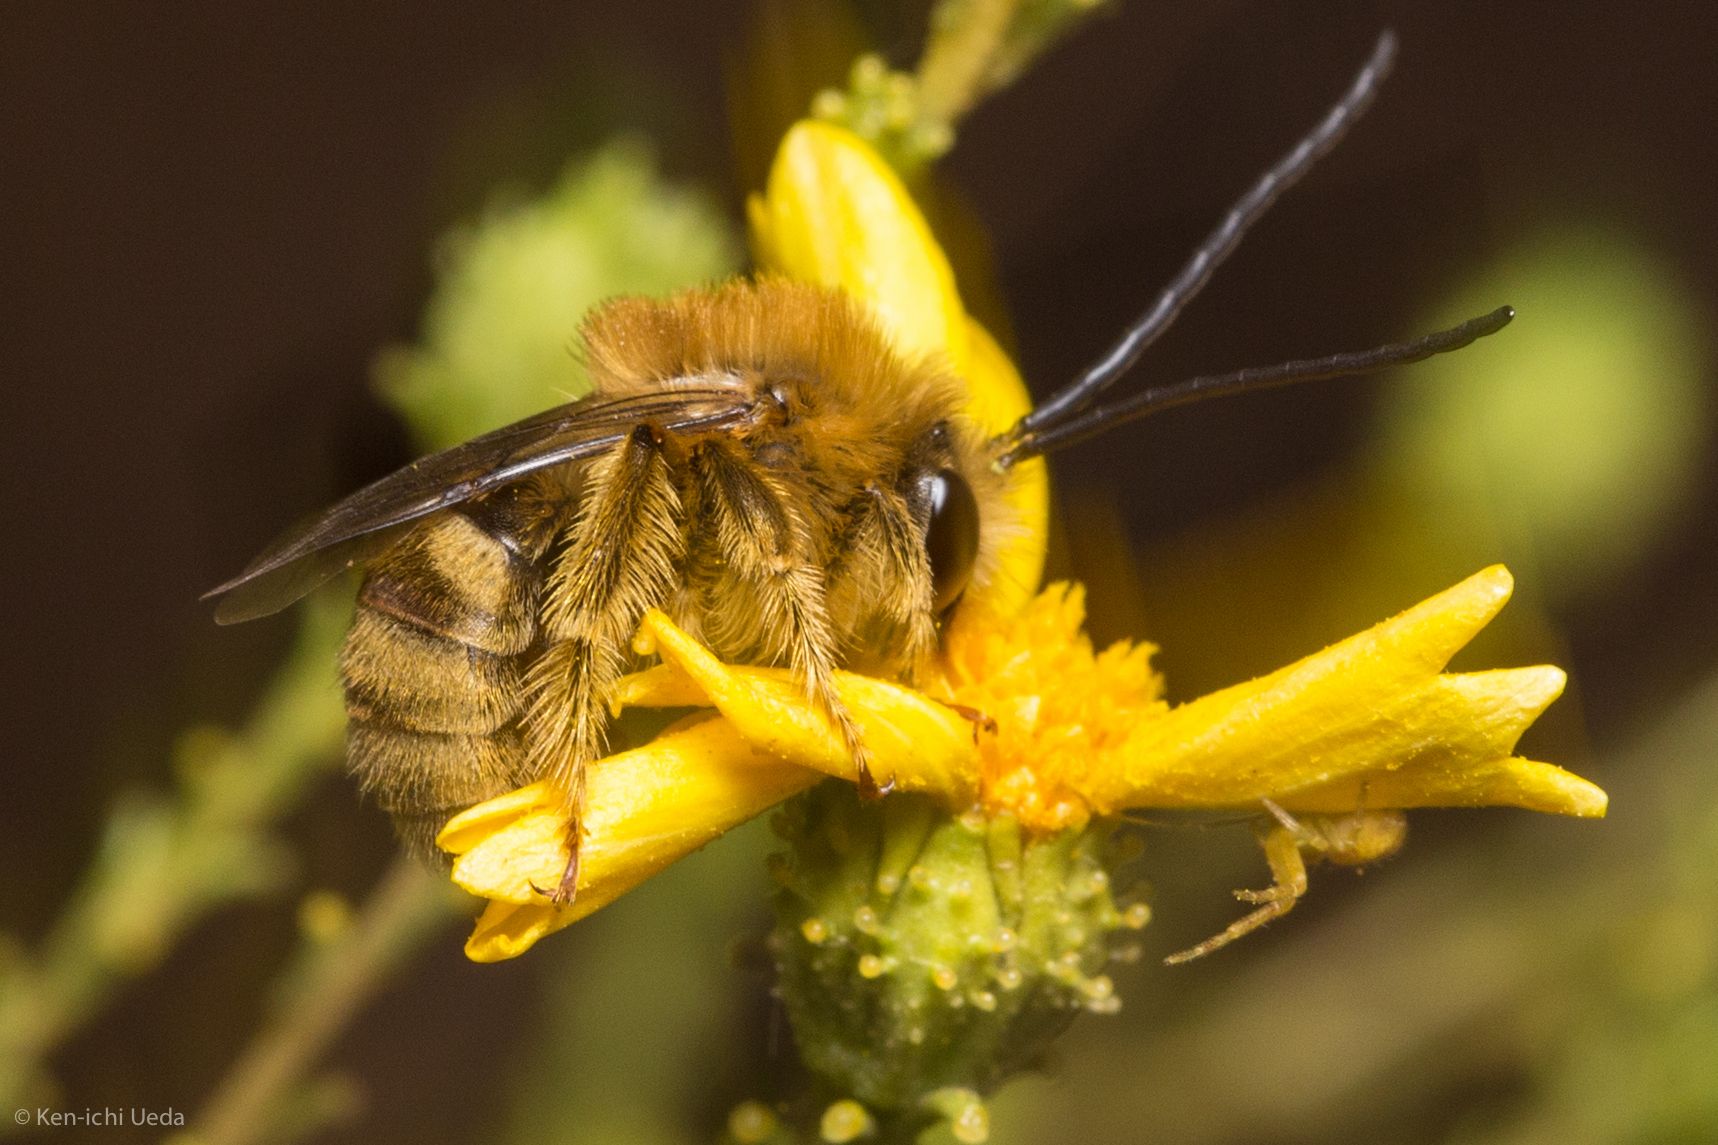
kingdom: Animalia
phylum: Arthropoda
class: Insecta
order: Hymenoptera
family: Apidae
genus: Tetraloniella
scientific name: Tetraloniella pomonae
